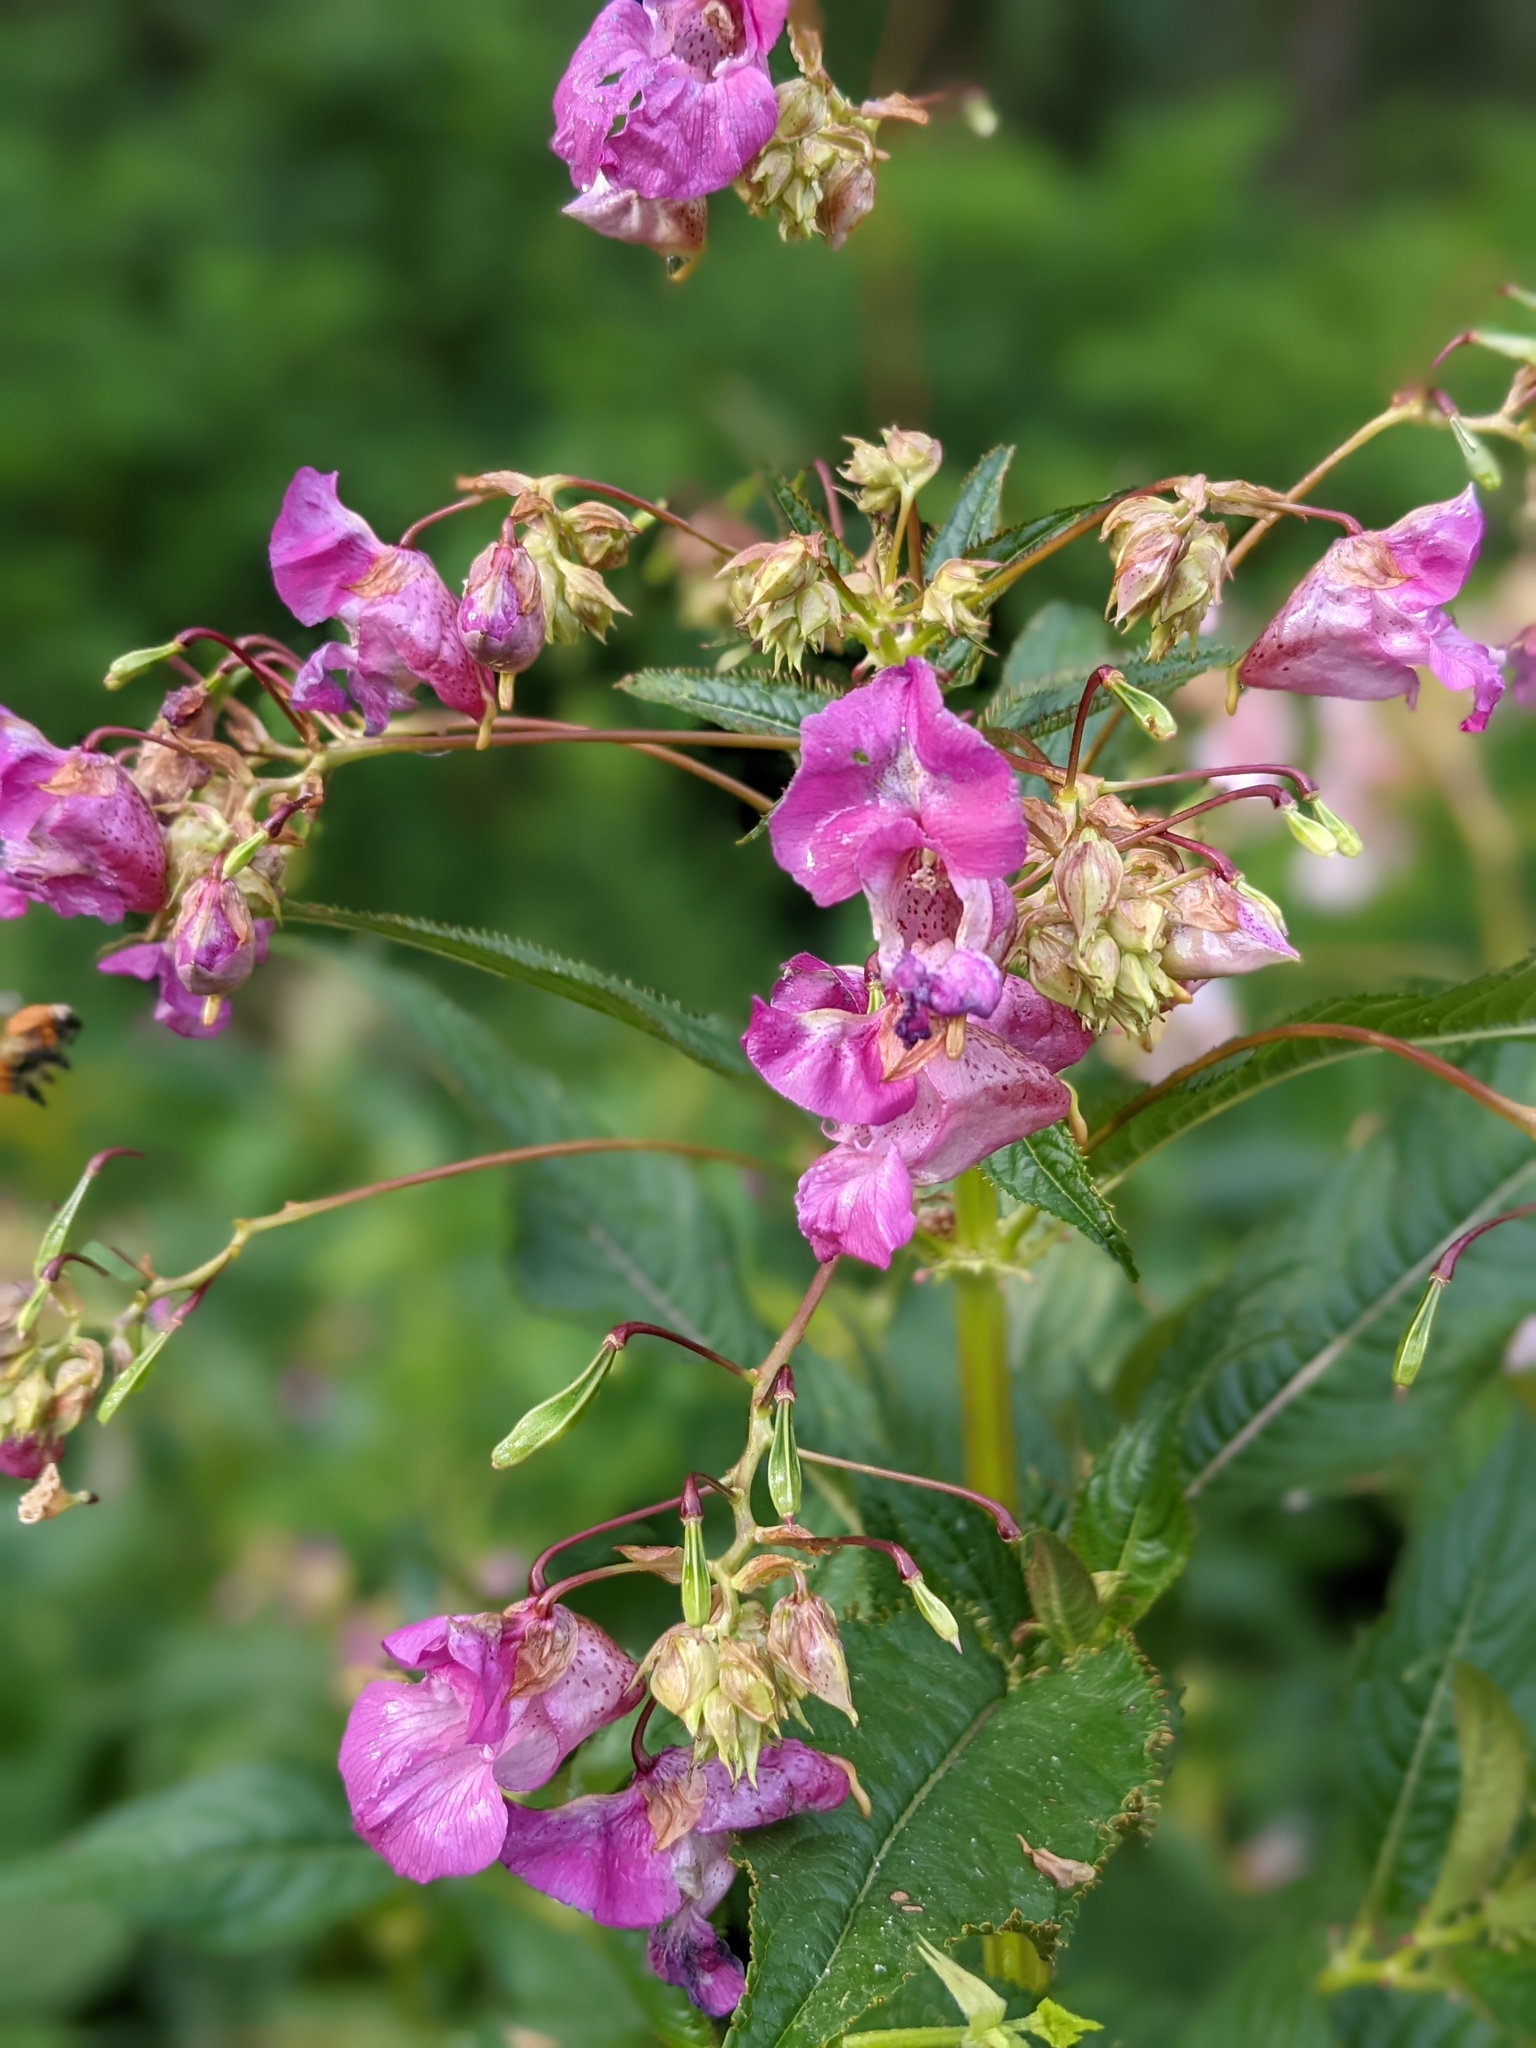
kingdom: Plantae
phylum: Tracheophyta
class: Magnoliopsida
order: Ericales
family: Balsaminaceae
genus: Impatiens
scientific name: Impatiens glandulifera
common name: Himalayan balsam
